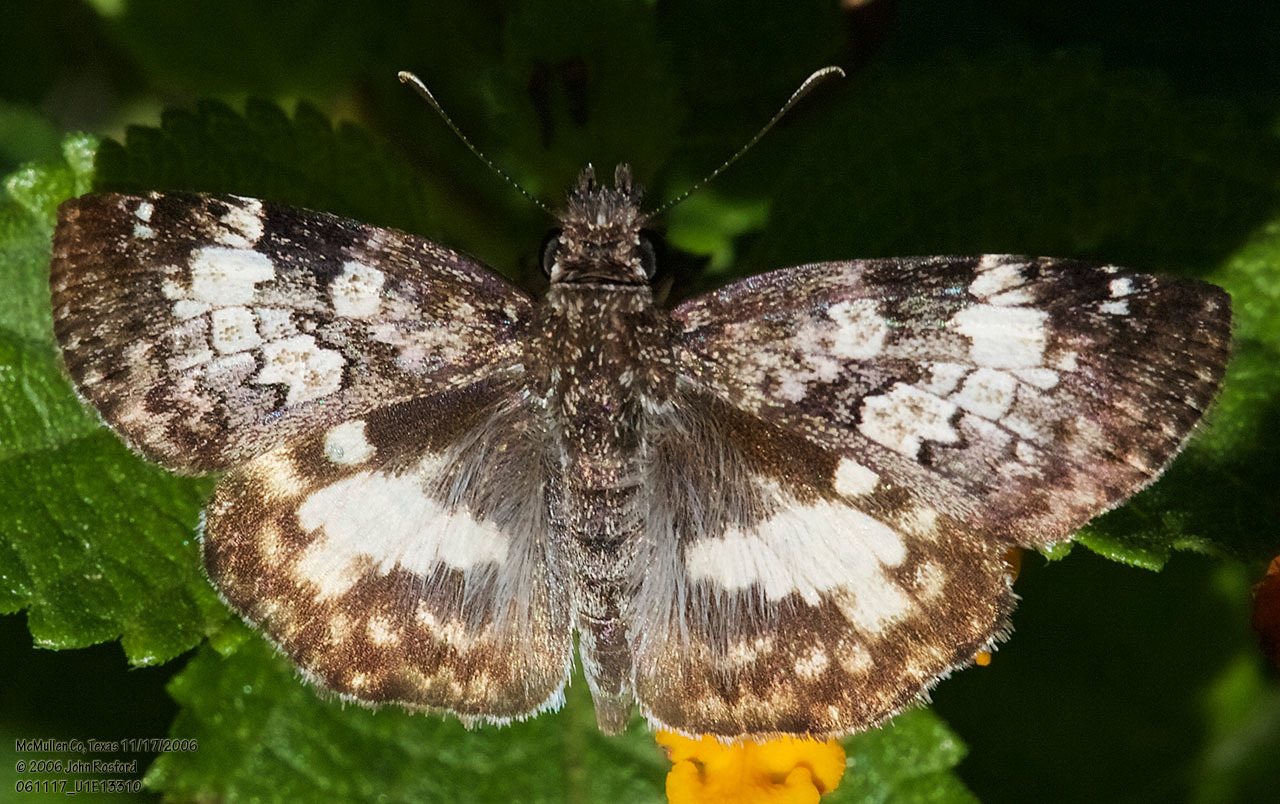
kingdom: Animalia
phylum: Arthropoda
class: Insecta
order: Lepidoptera
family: Hesperiidae
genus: Chiothion
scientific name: Chiothion georgina
